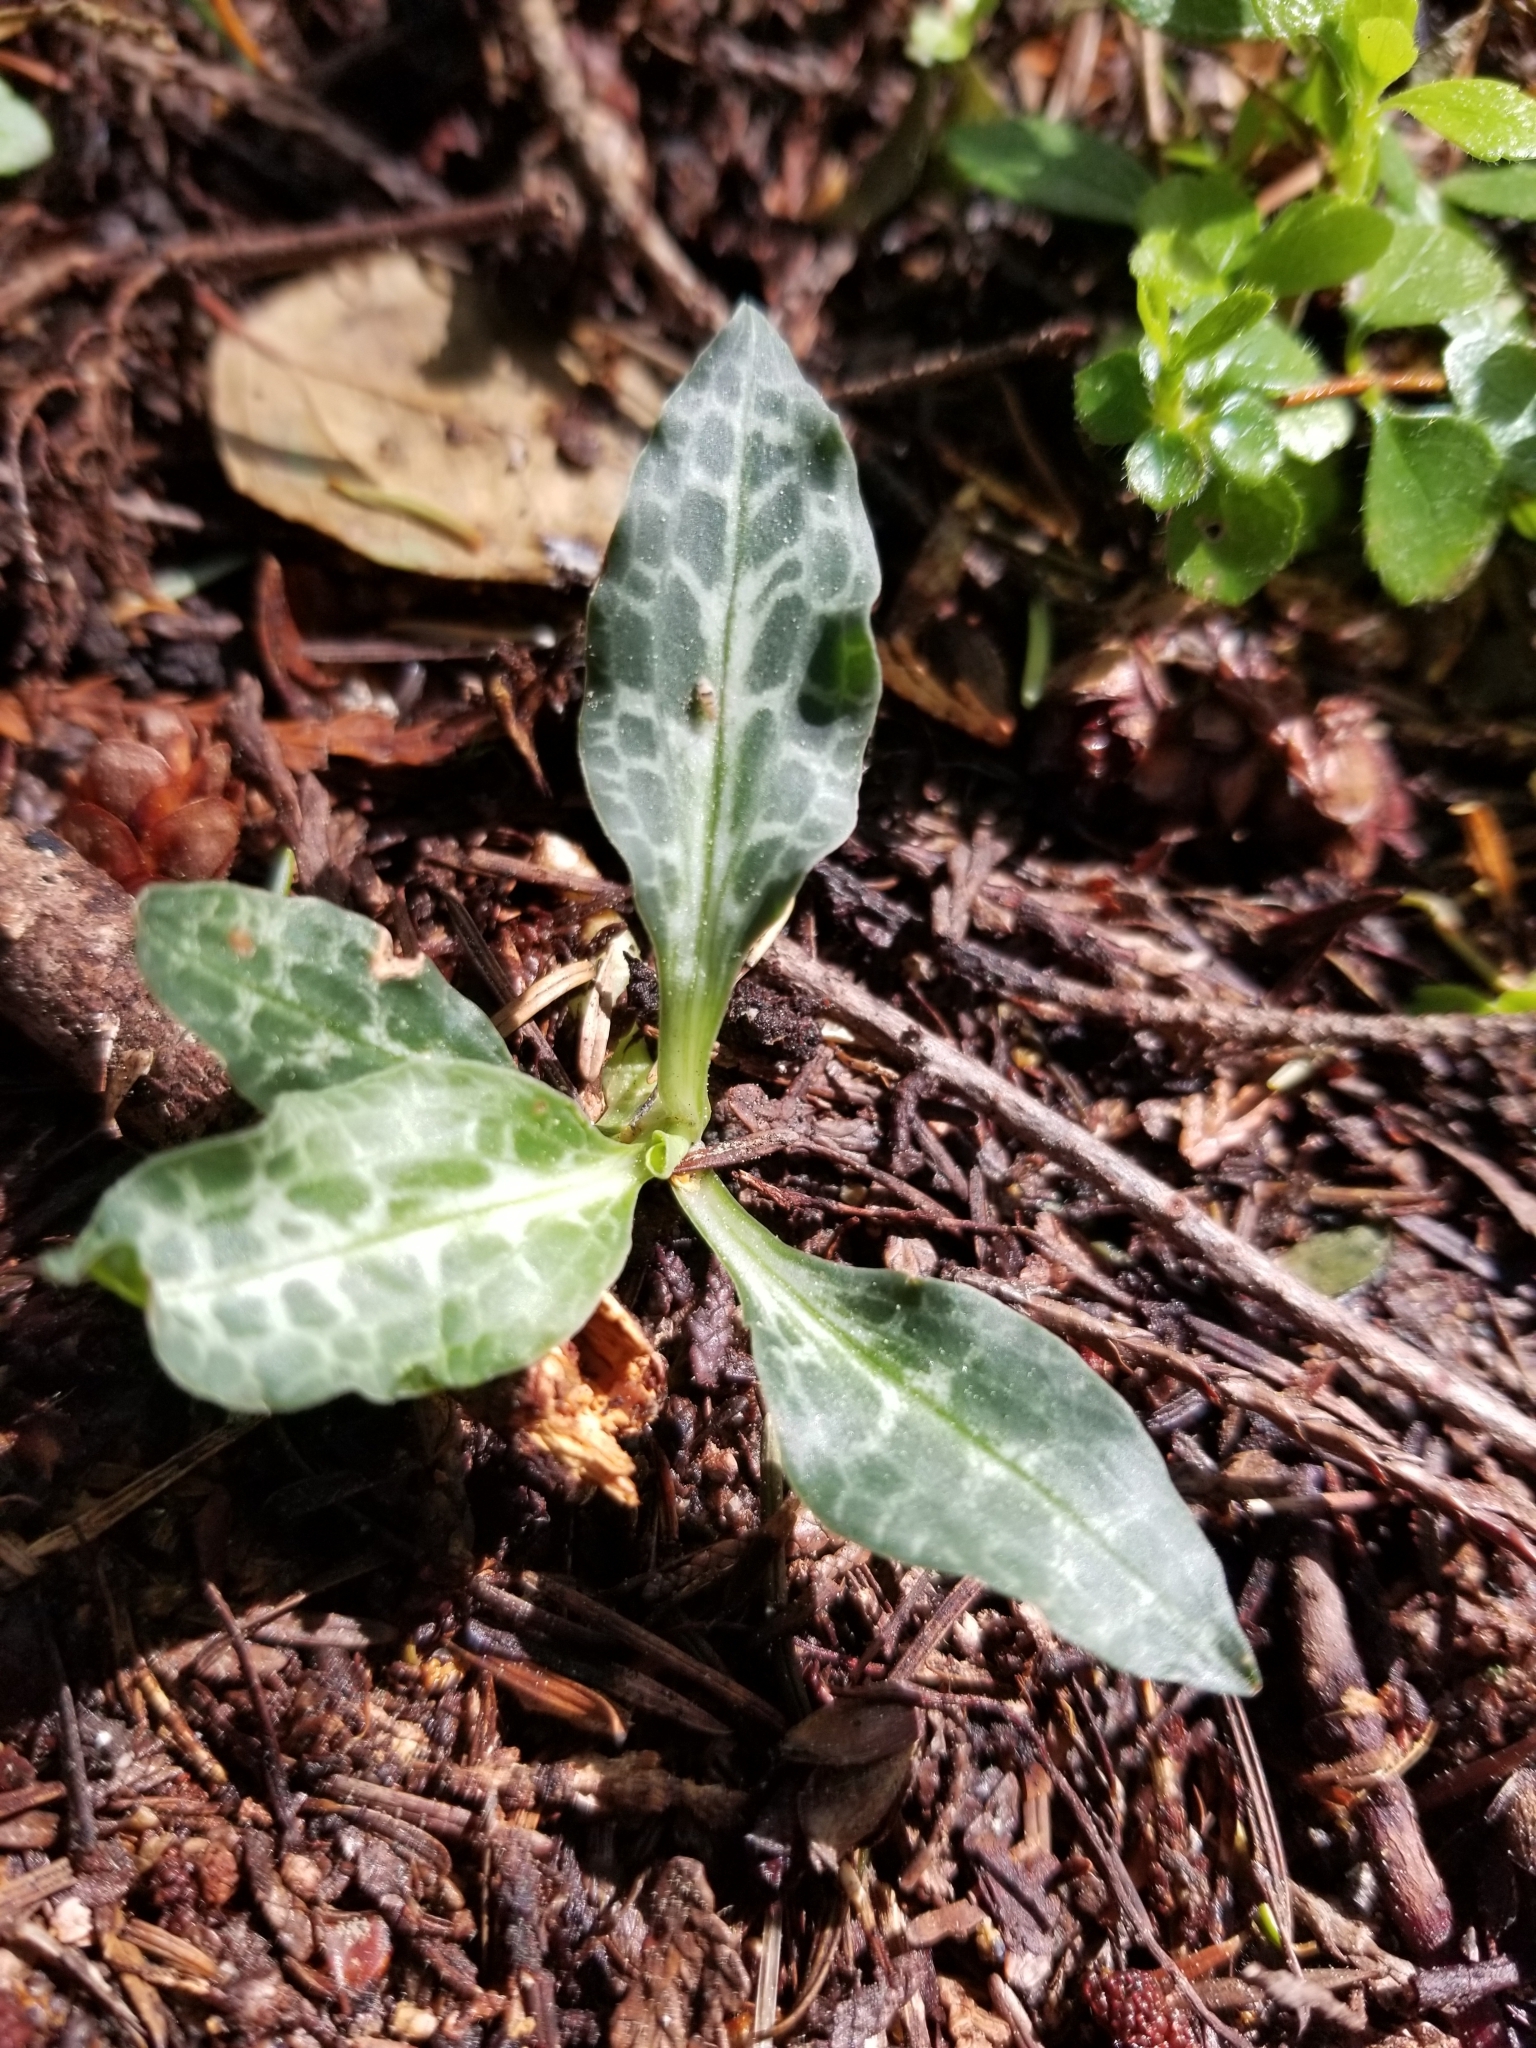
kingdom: Plantae
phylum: Tracheophyta
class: Liliopsida
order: Asparagales
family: Orchidaceae
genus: Goodyera
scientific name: Goodyera oblongifolia
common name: Giant rattlesnake-plantain
